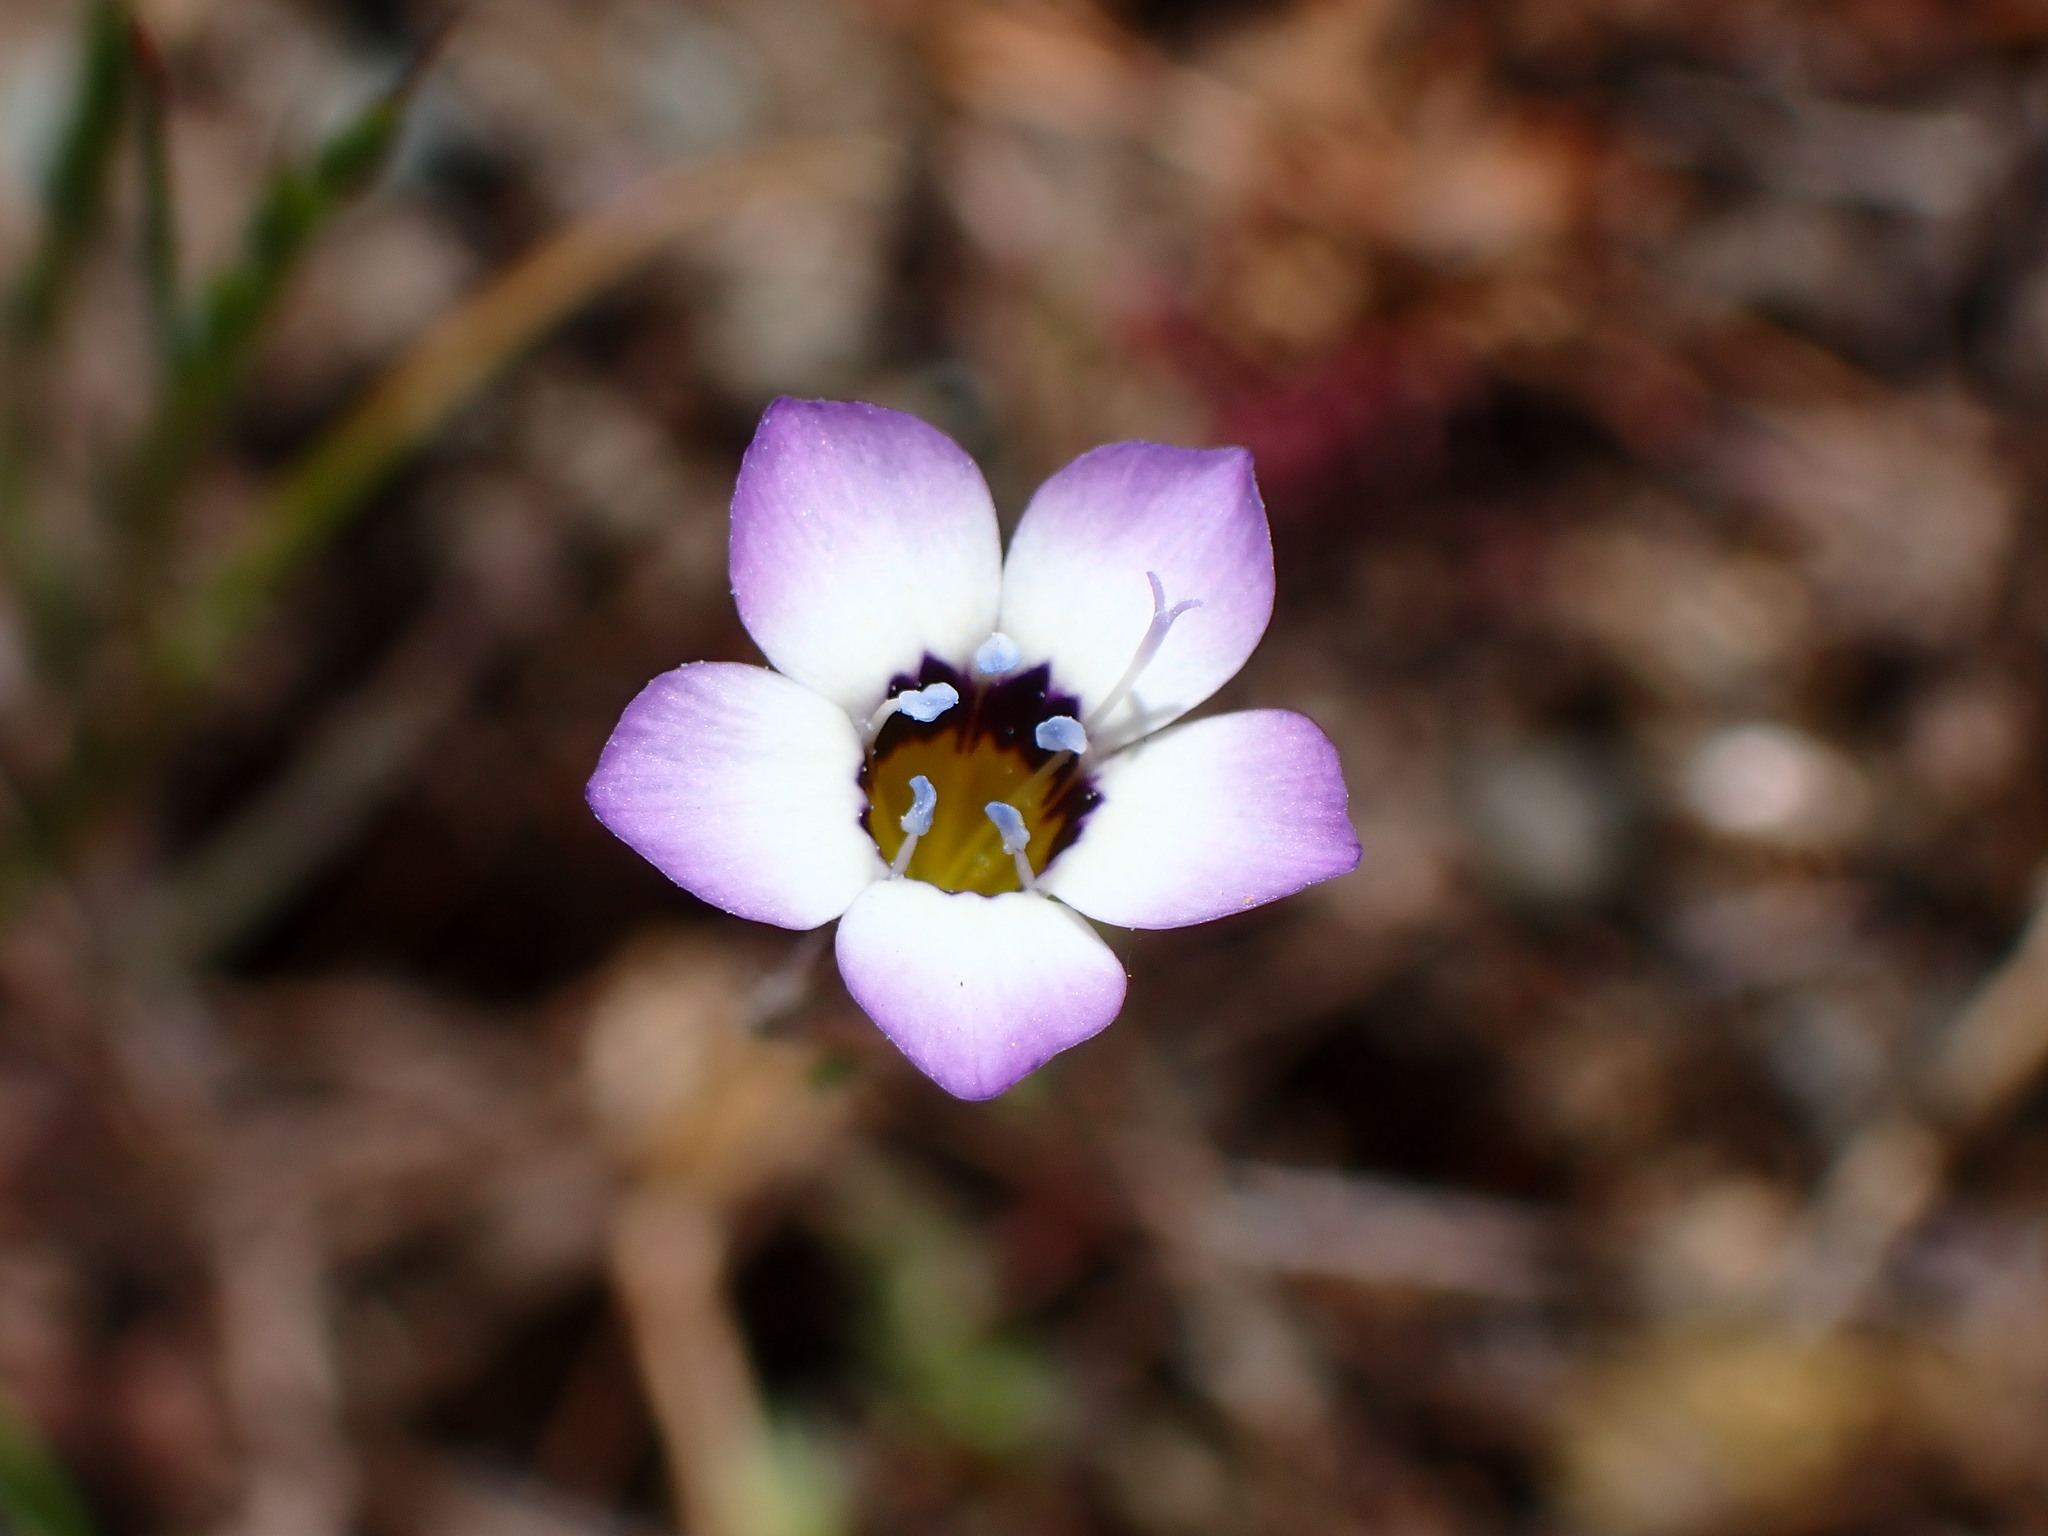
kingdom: Plantae
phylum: Tracheophyta
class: Magnoliopsida
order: Ericales
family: Polemoniaceae
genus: Gilia
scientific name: Gilia tricolor
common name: Bird's-eyes
